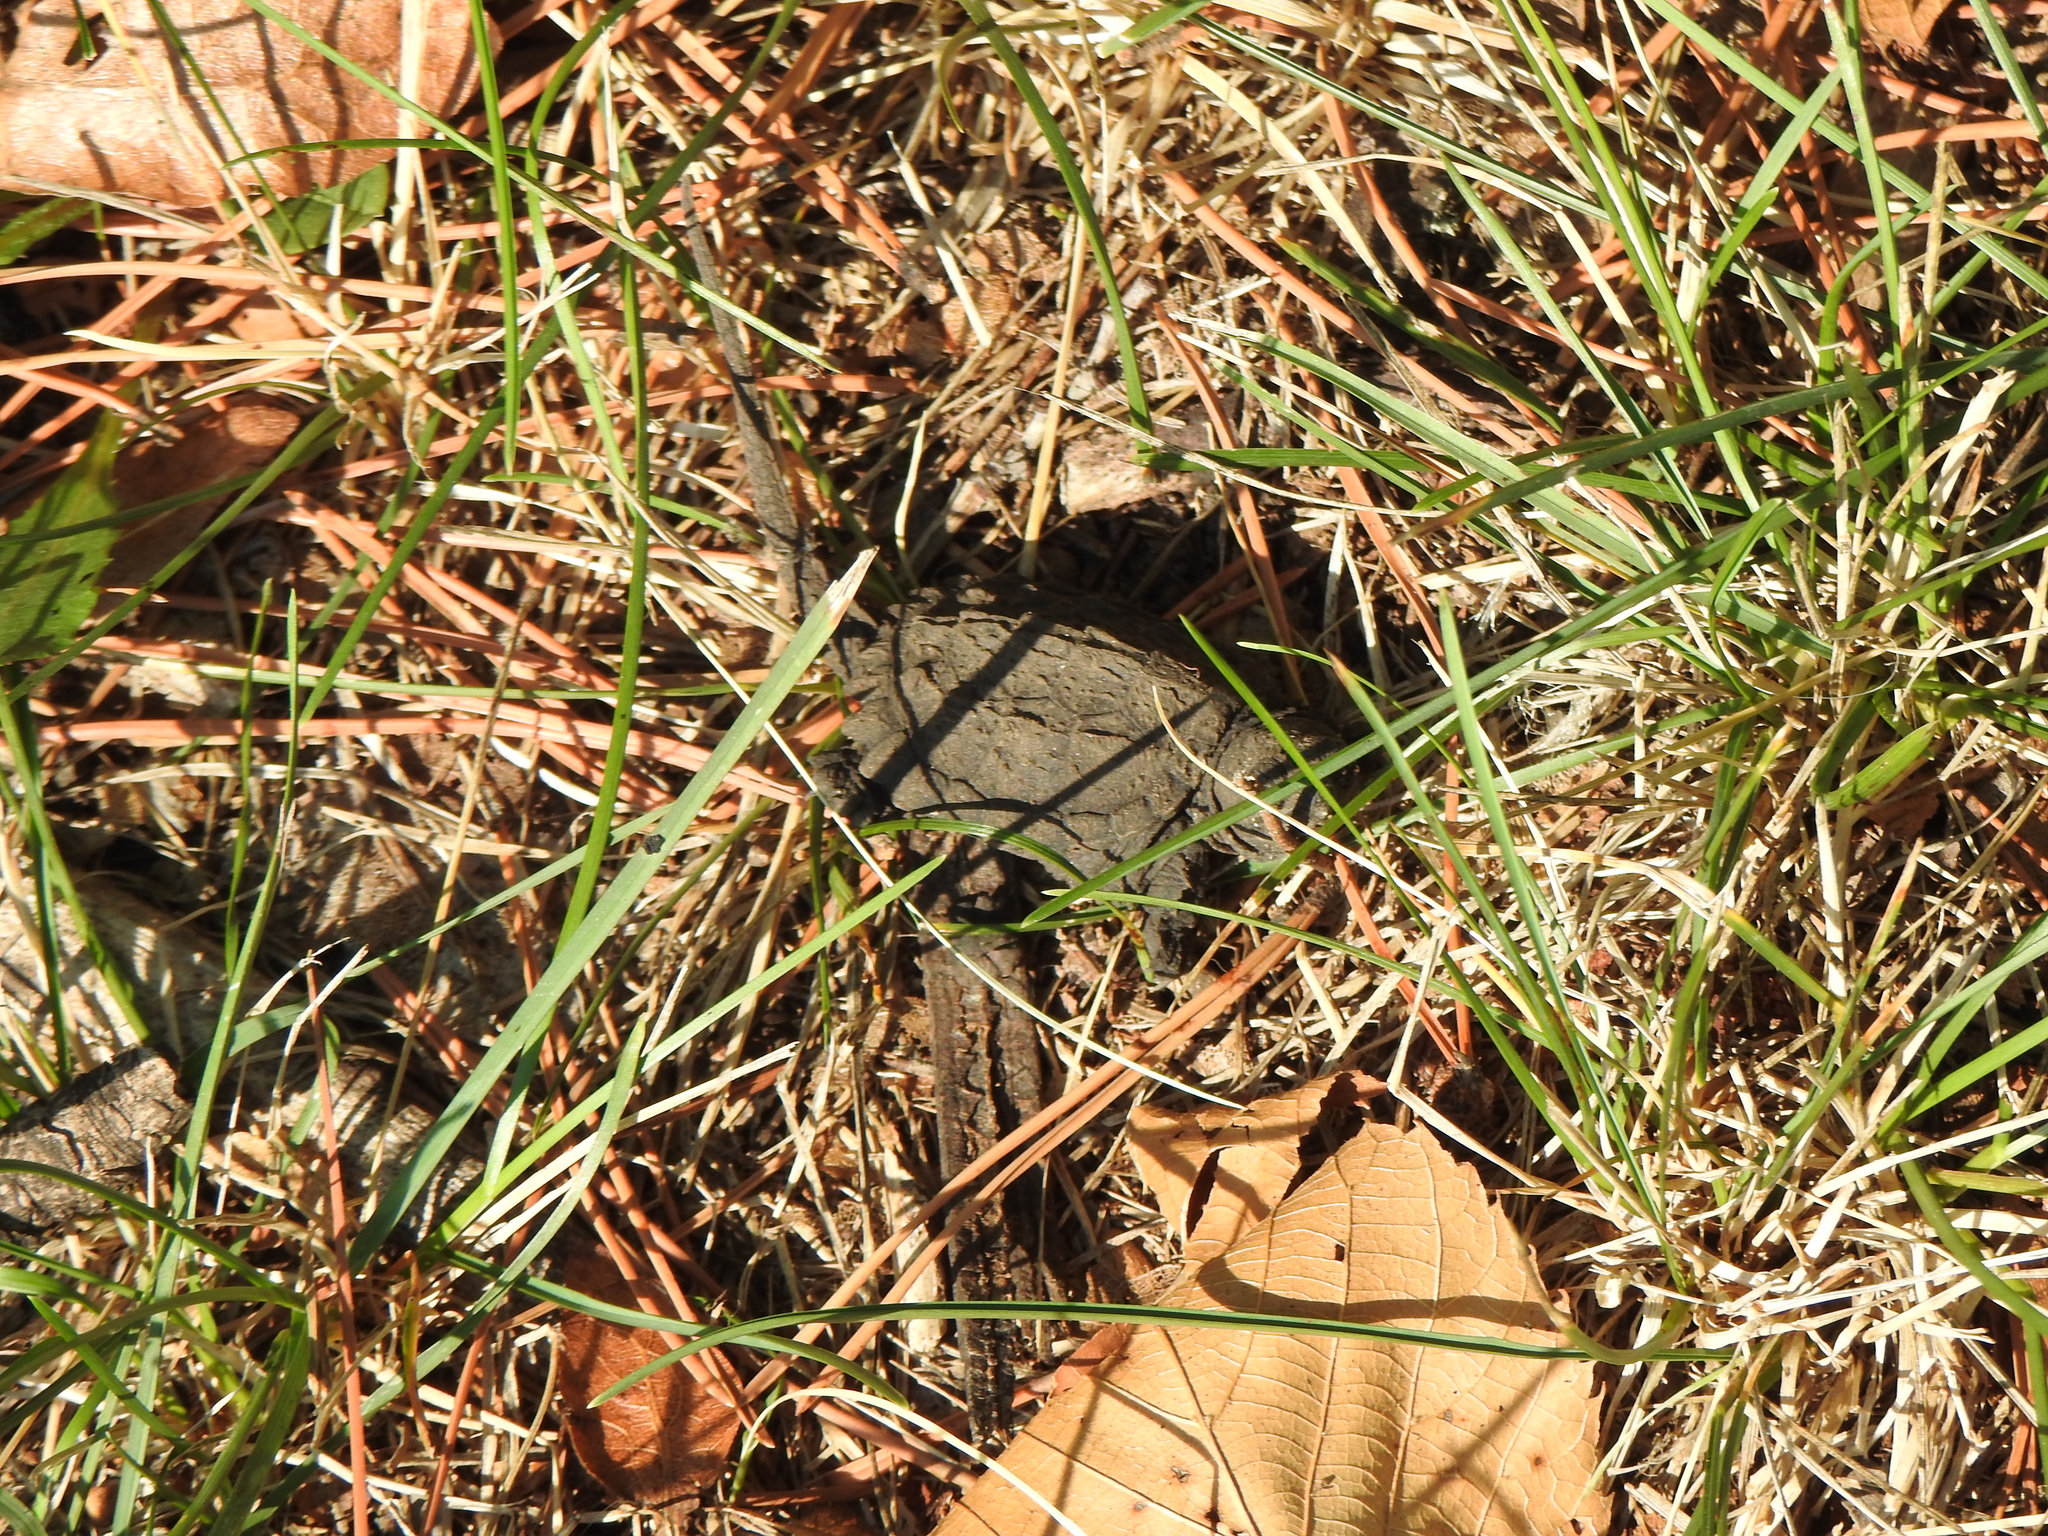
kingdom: Animalia
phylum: Chordata
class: Testudines
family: Chelydridae
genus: Chelydra
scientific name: Chelydra serpentina
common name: Common snapping turtle
